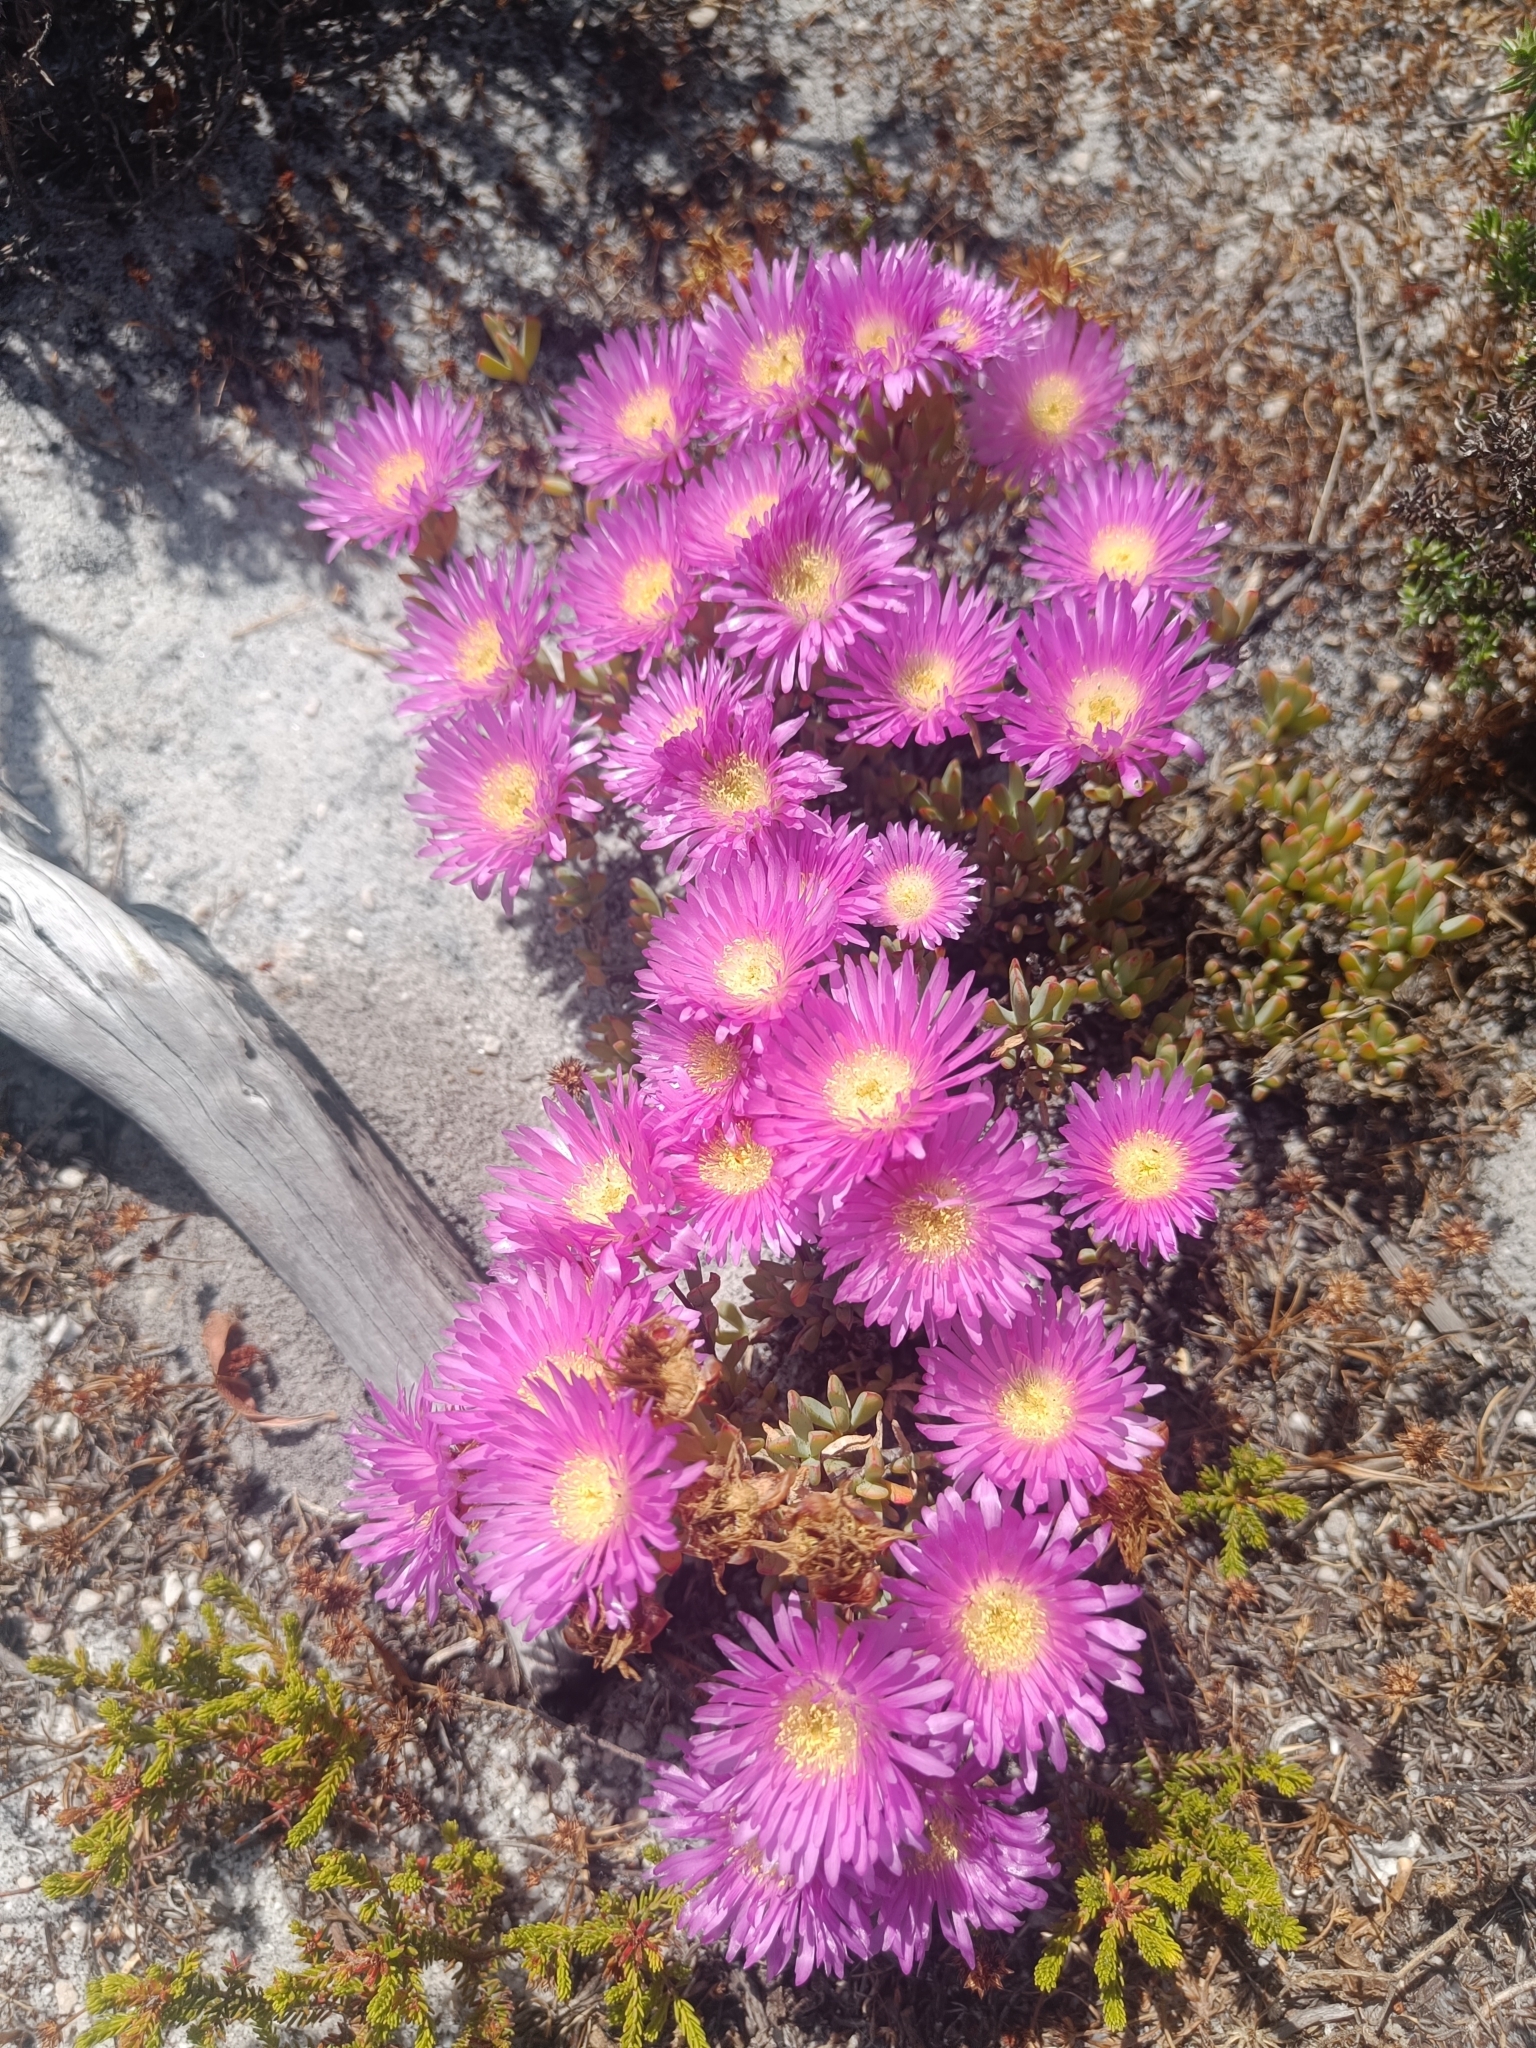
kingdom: Plantae
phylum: Tracheophyta
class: Magnoliopsida
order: Caryophyllales
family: Aizoaceae
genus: Oscularia
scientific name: Oscularia falciformis
